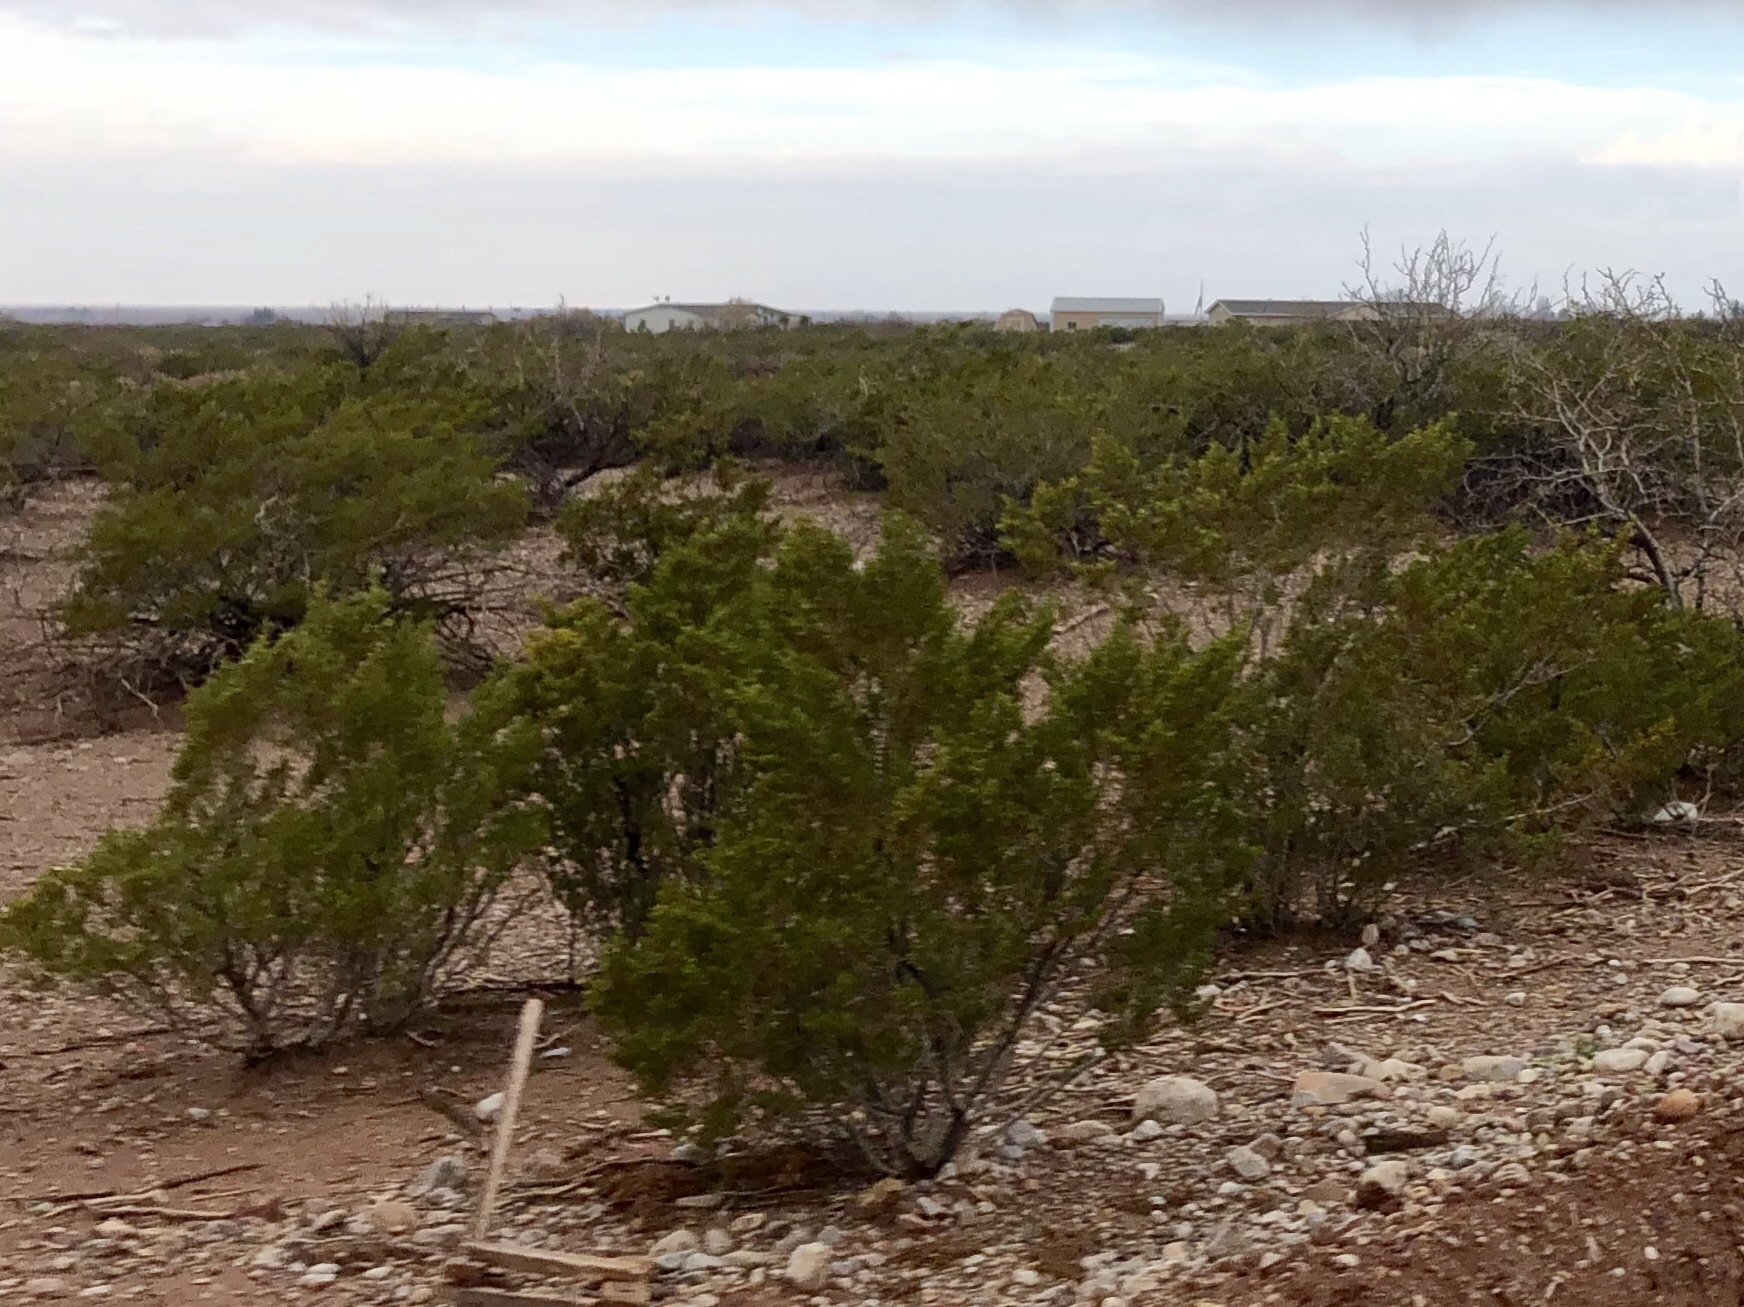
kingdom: Plantae
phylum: Tracheophyta
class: Magnoliopsida
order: Zygophyllales
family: Zygophyllaceae
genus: Larrea
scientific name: Larrea tridentata
